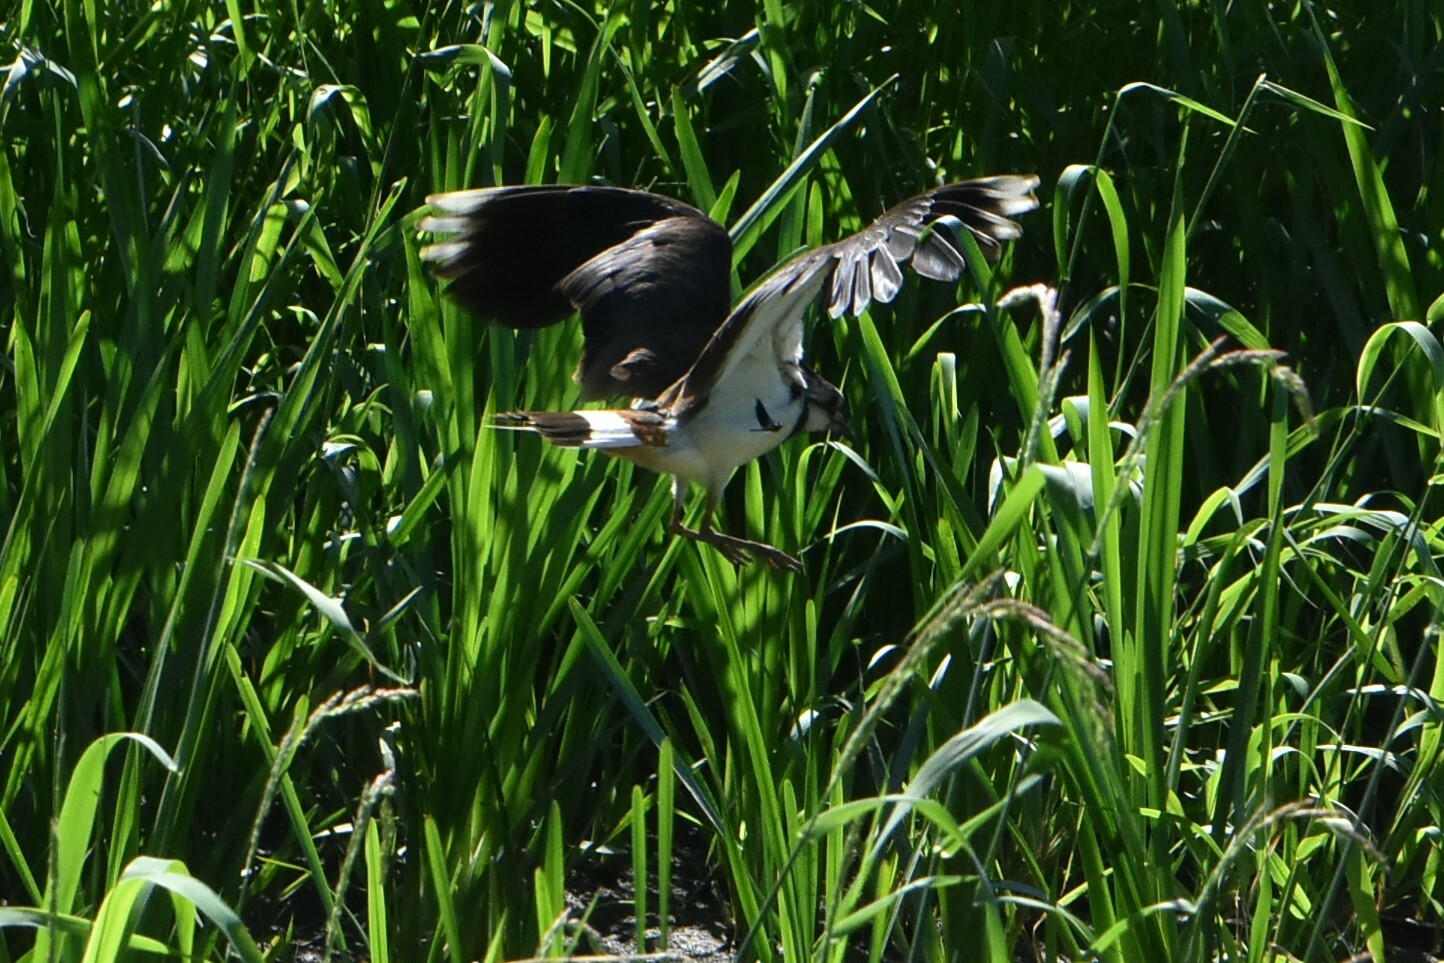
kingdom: Animalia
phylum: Chordata
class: Aves
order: Charadriiformes
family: Charadriidae
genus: Vanellus
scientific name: Vanellus vanellus
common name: Northern lapwing
